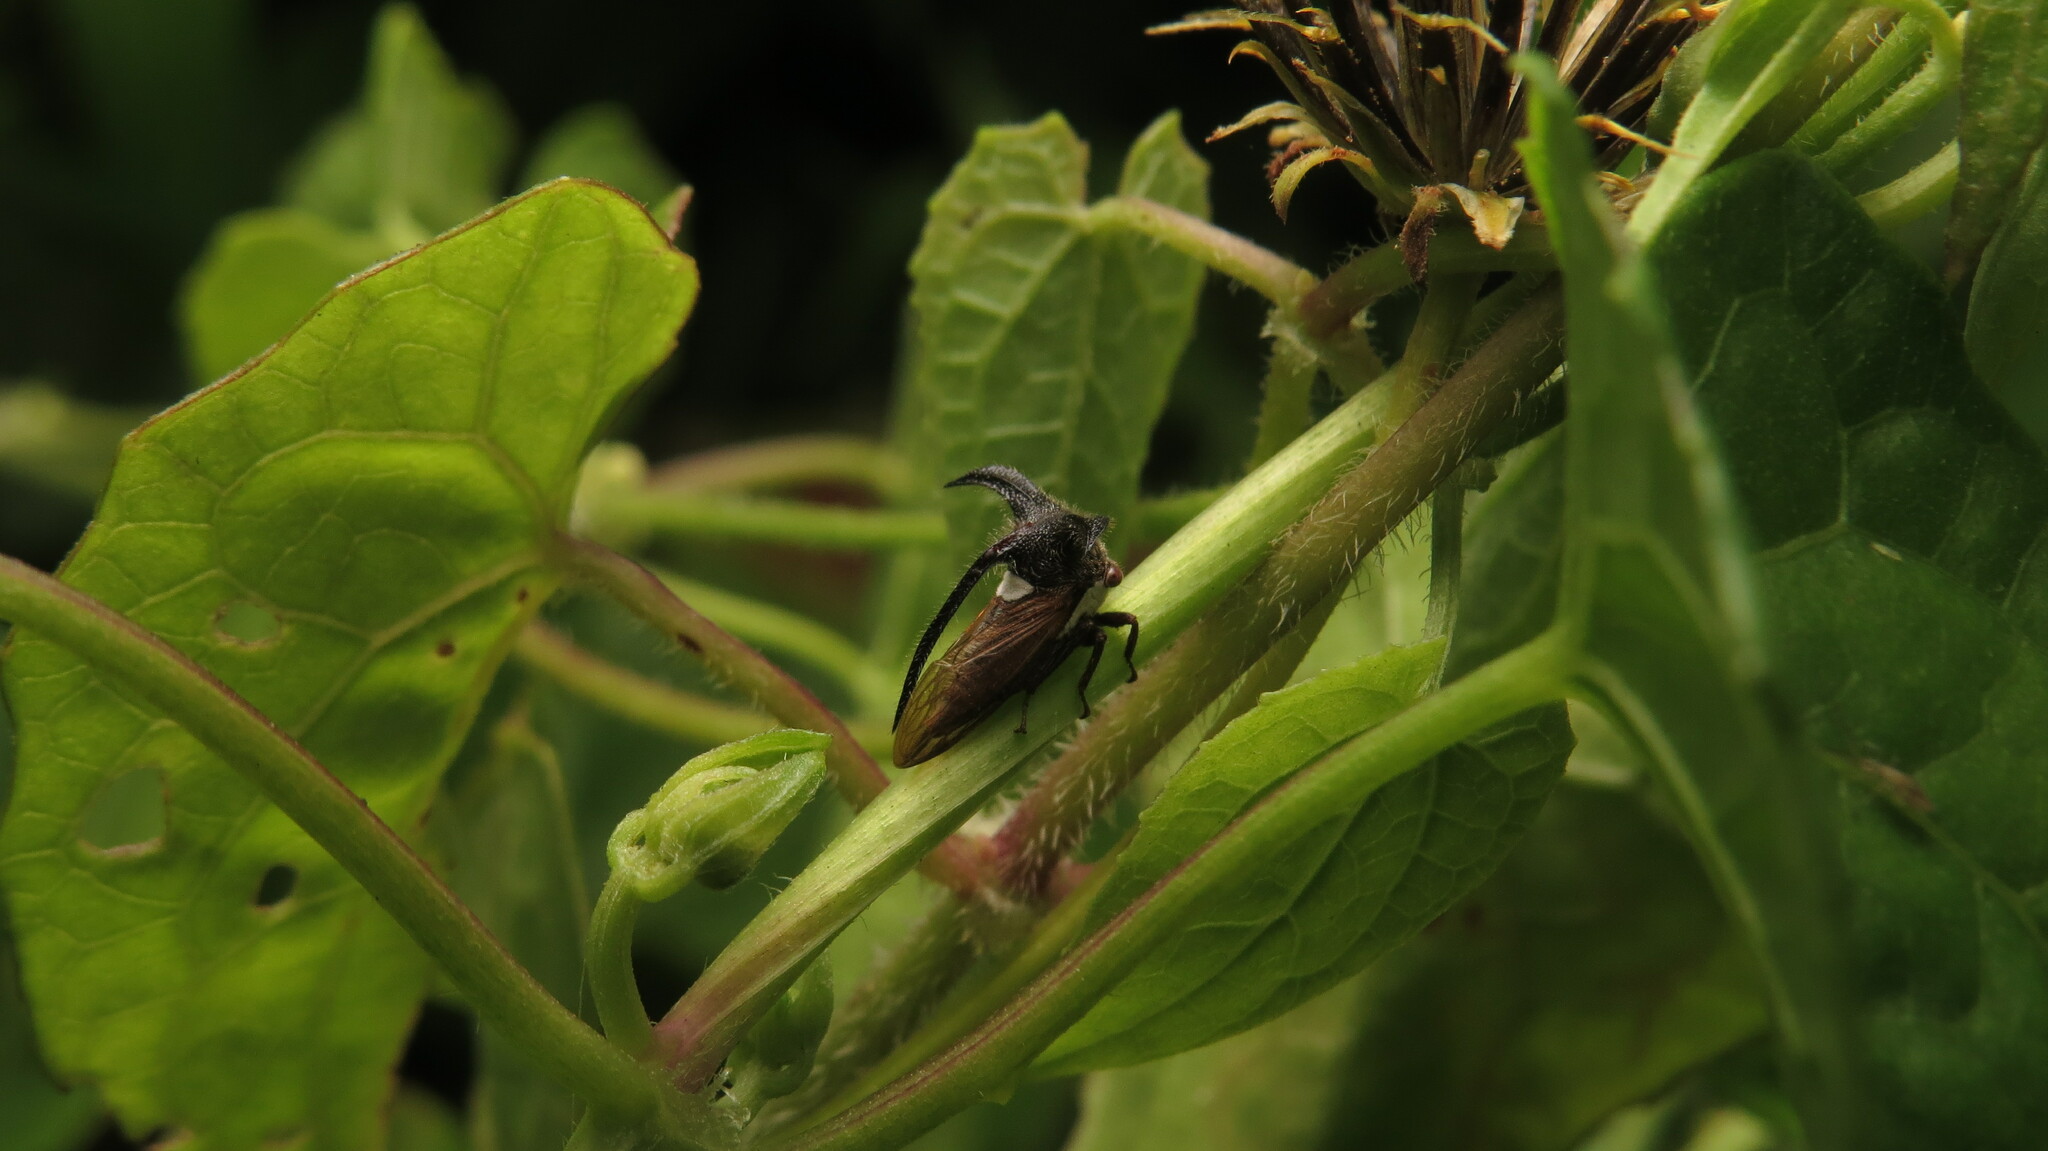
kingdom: Animalia
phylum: Arthropoda
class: Insecta
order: Hemiptera
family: Membracidae
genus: Leptocentrus
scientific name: Leptocentrus taurus
